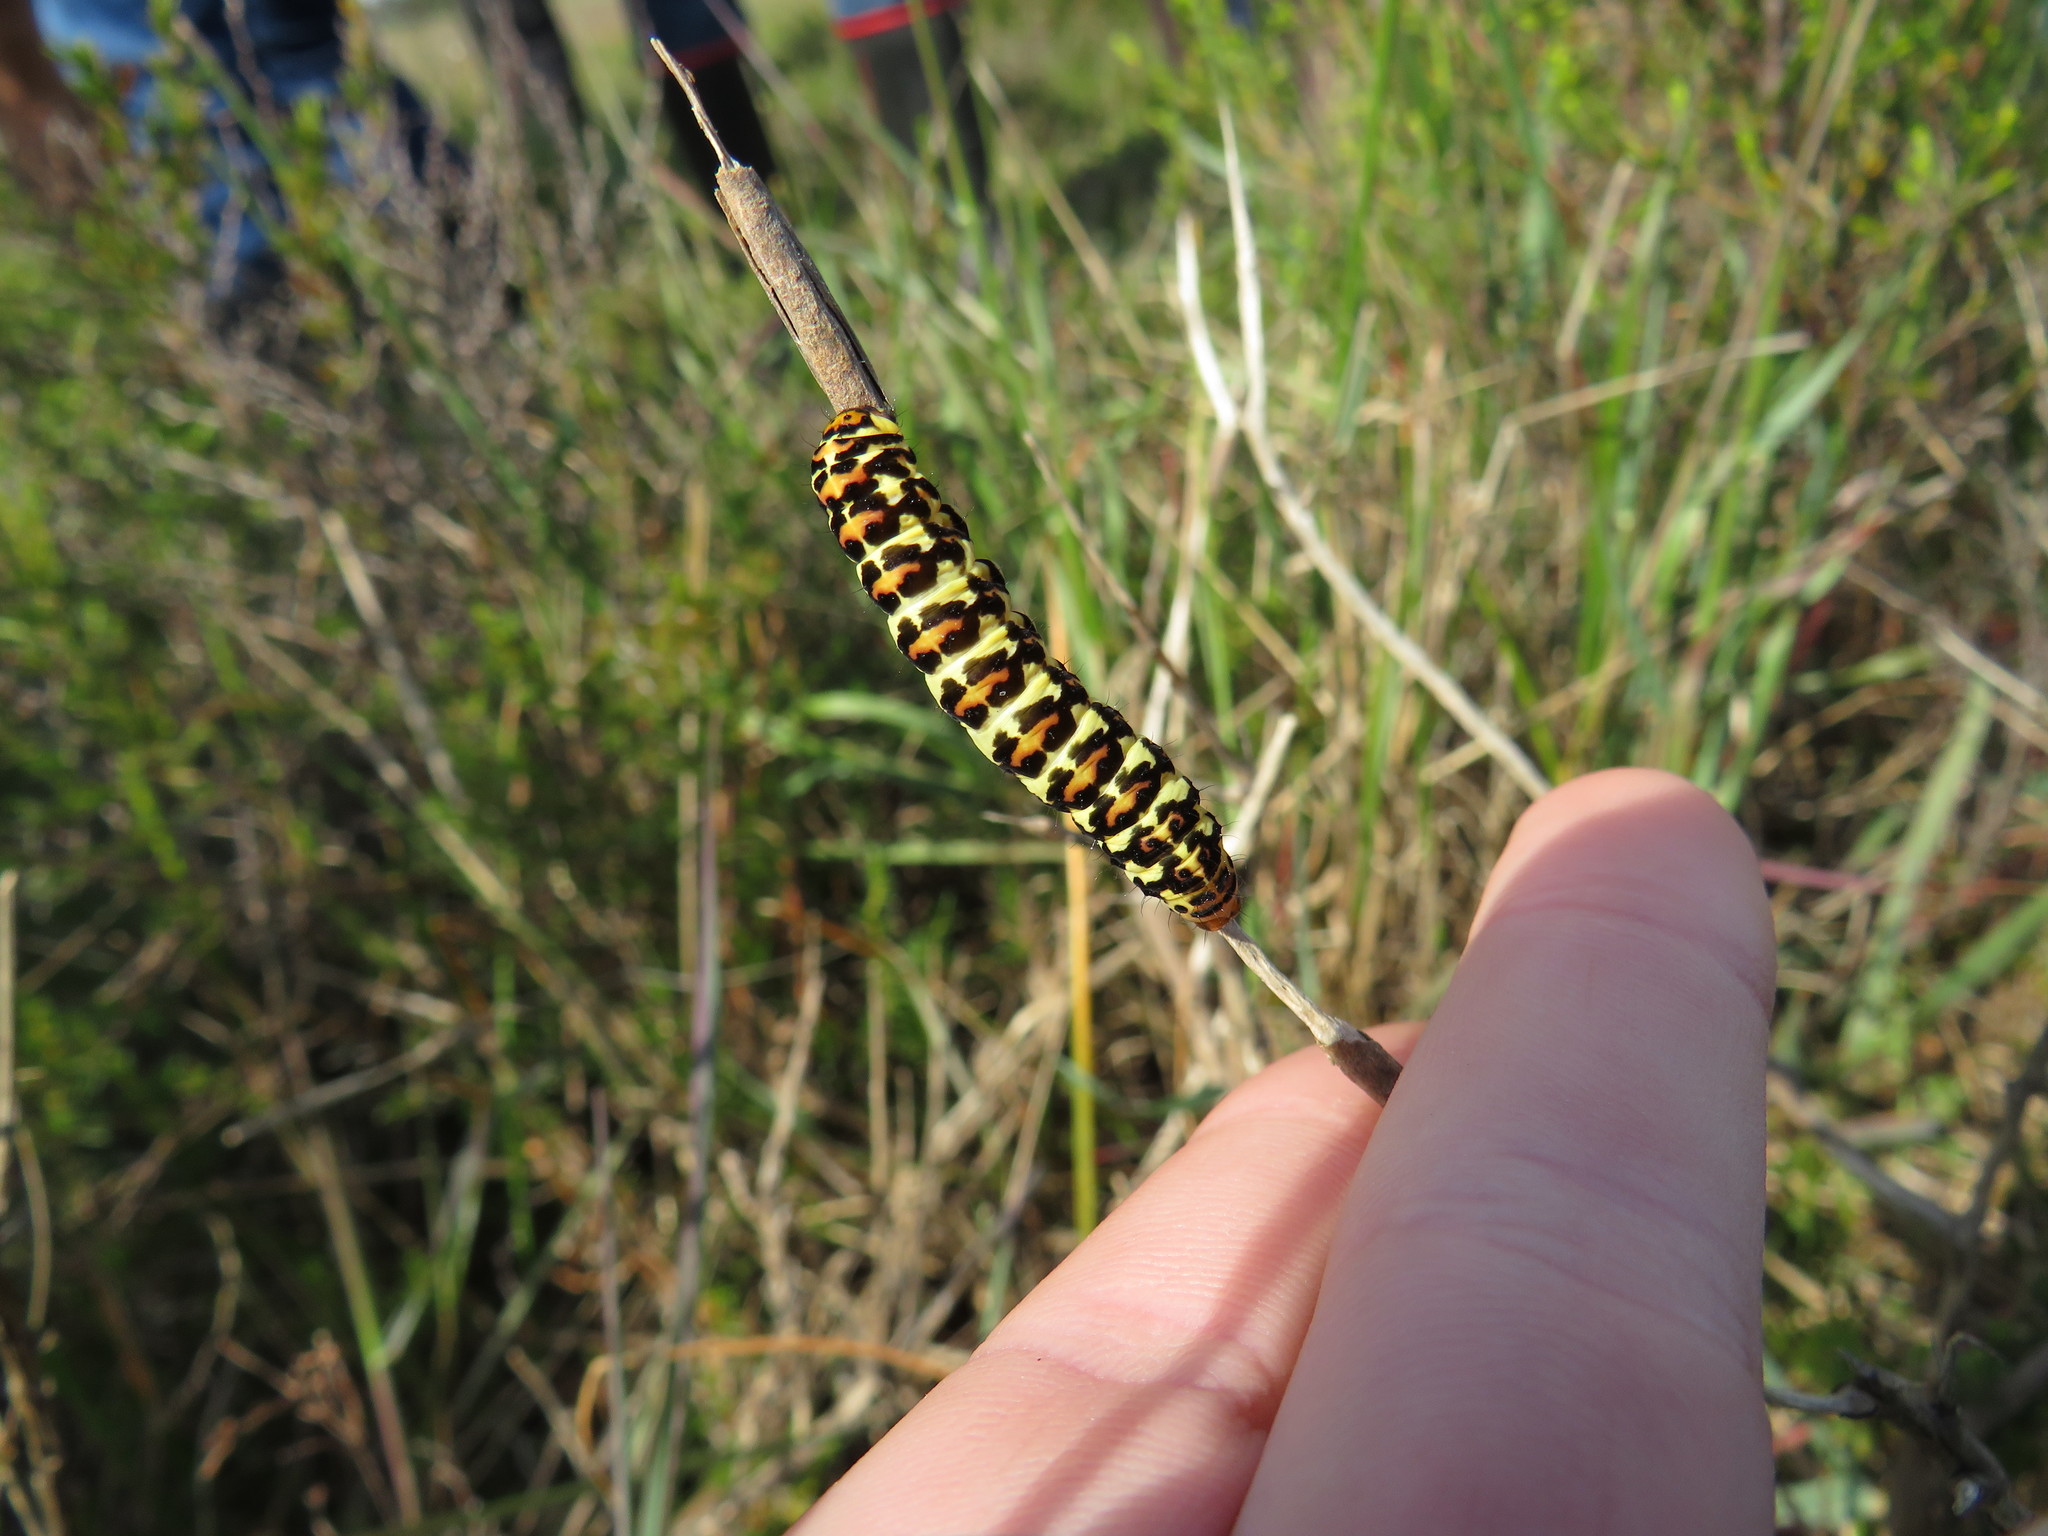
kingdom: Animalia
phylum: Arthropoda
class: Insecta
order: Lepidoptera
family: Noctuidae
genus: Diaphone
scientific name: Diaphone eumela
